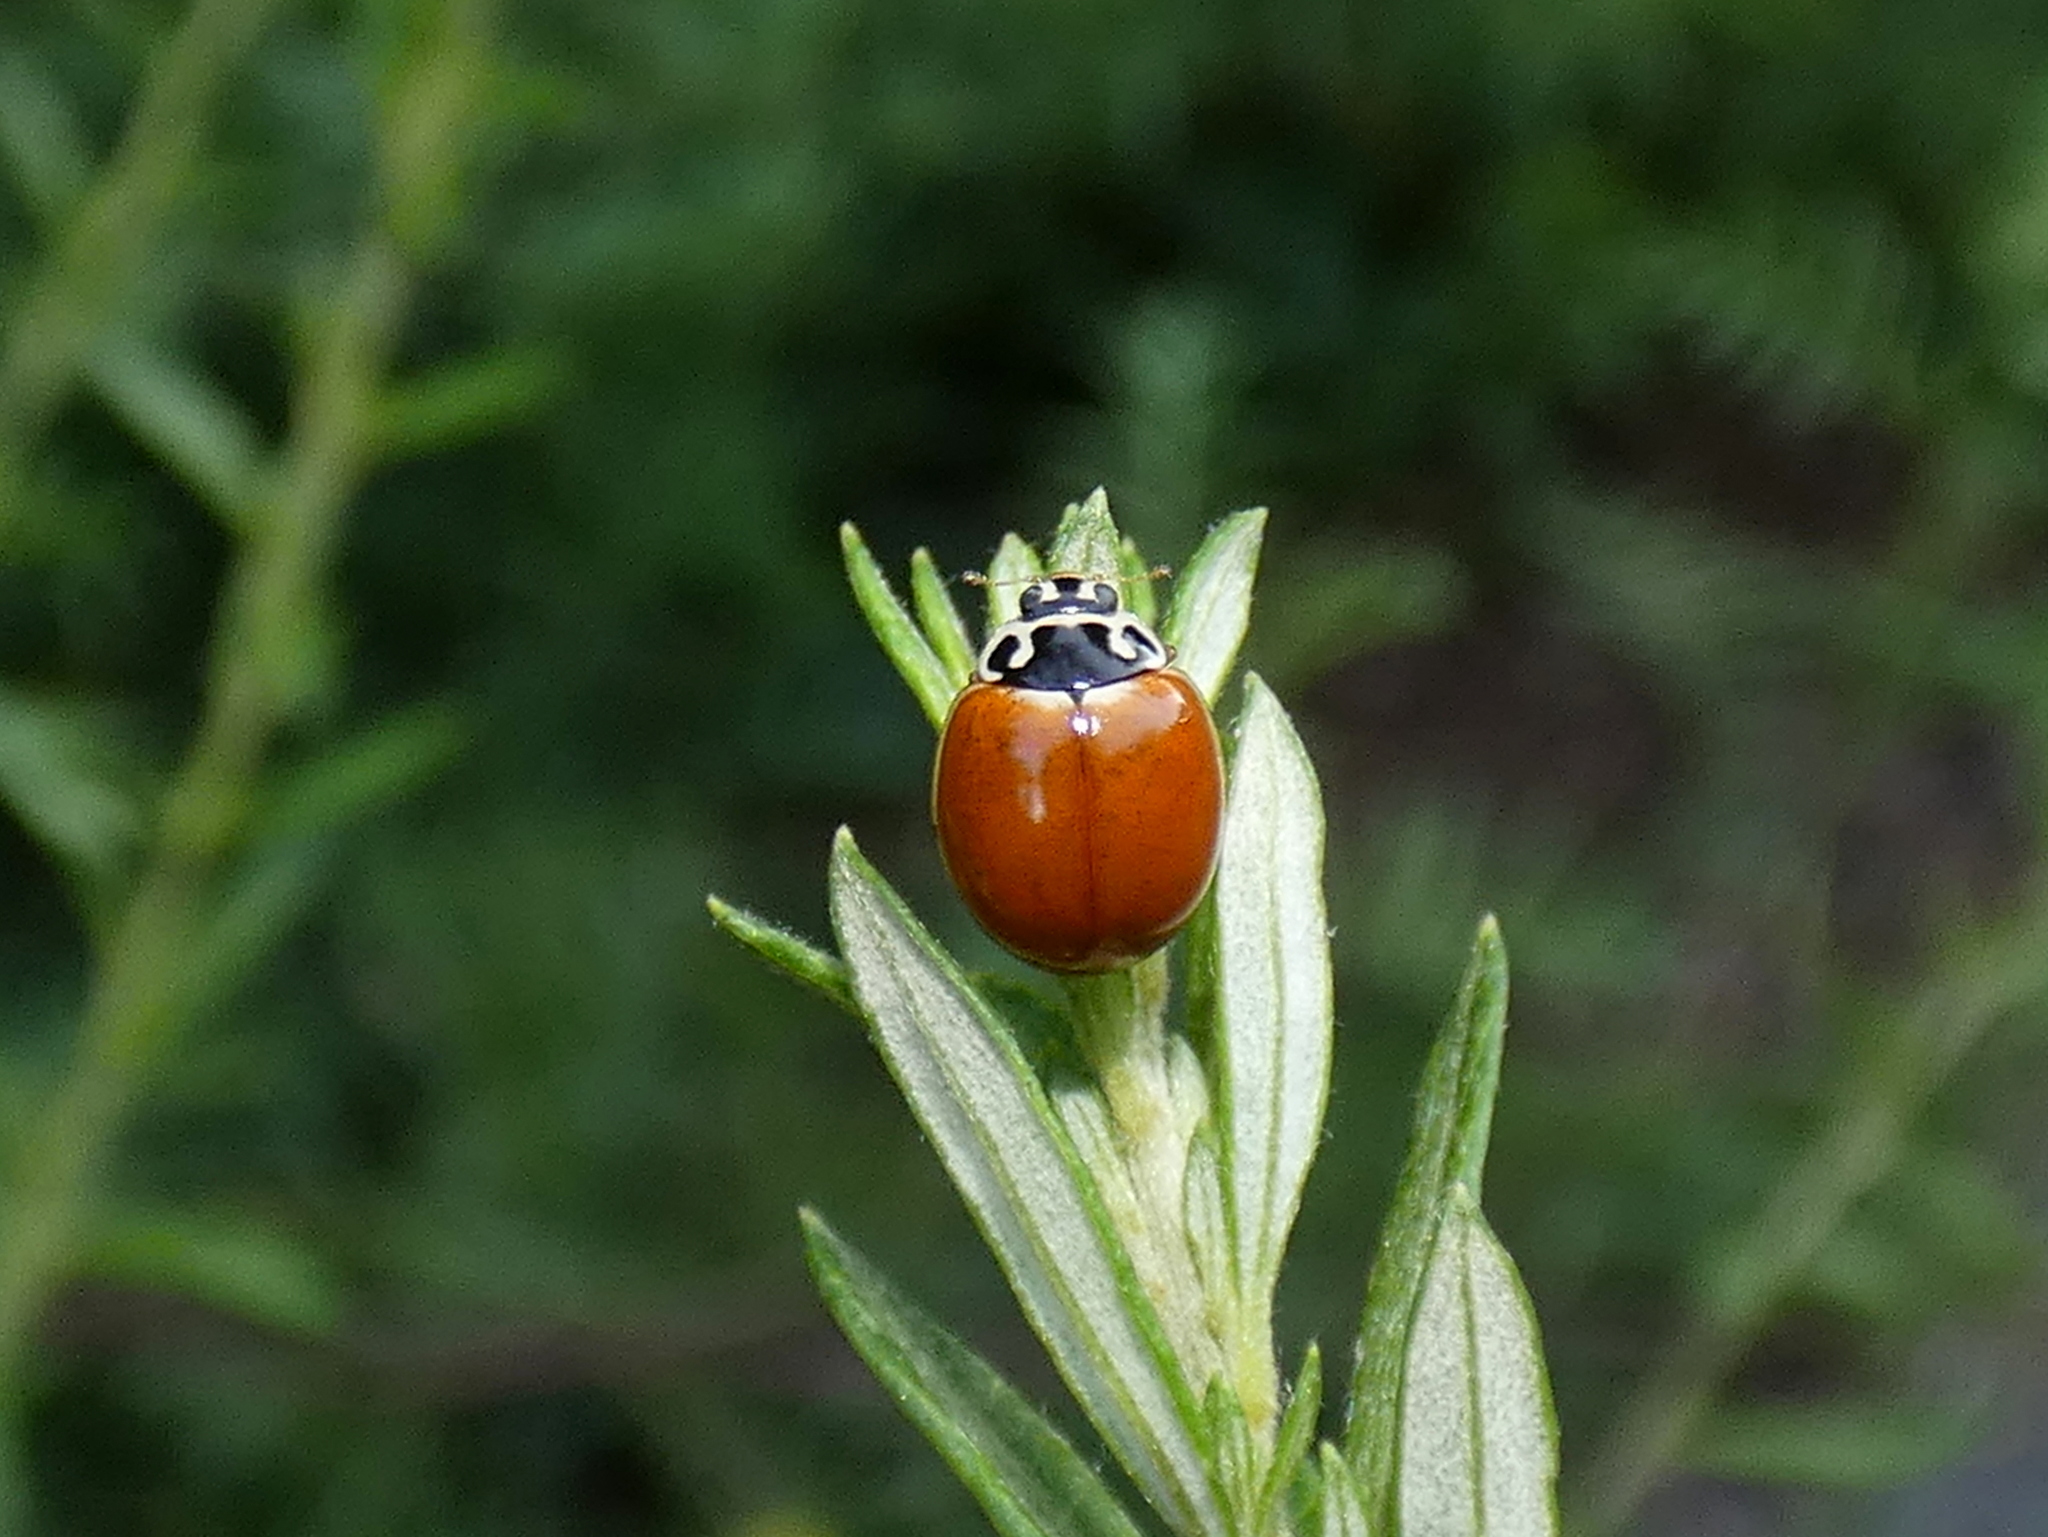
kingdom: Animalia
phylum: Arthropoda
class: Insecta
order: Coleoptera
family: Coccinellidae
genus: Cycloneda
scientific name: Cycloneda munda
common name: Polished lady beetle
